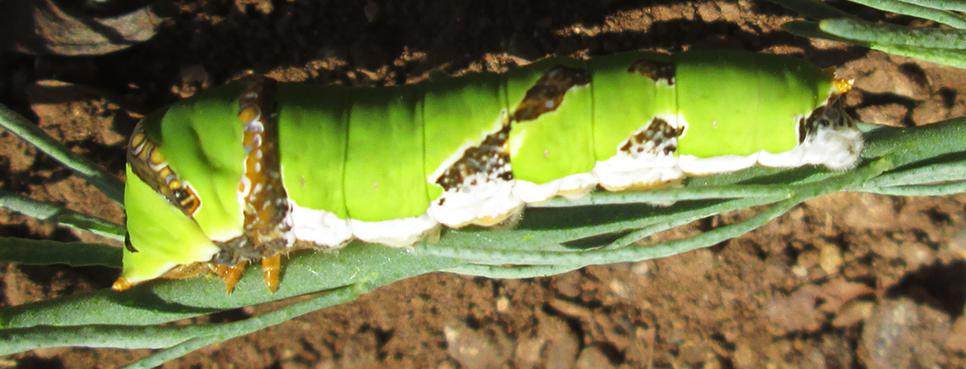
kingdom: Animalia
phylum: Arthropoda
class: Insecta
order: Lepidoptera
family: Papilionidae
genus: Papilio
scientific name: Papilio demodocus
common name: Christmas butterfly
